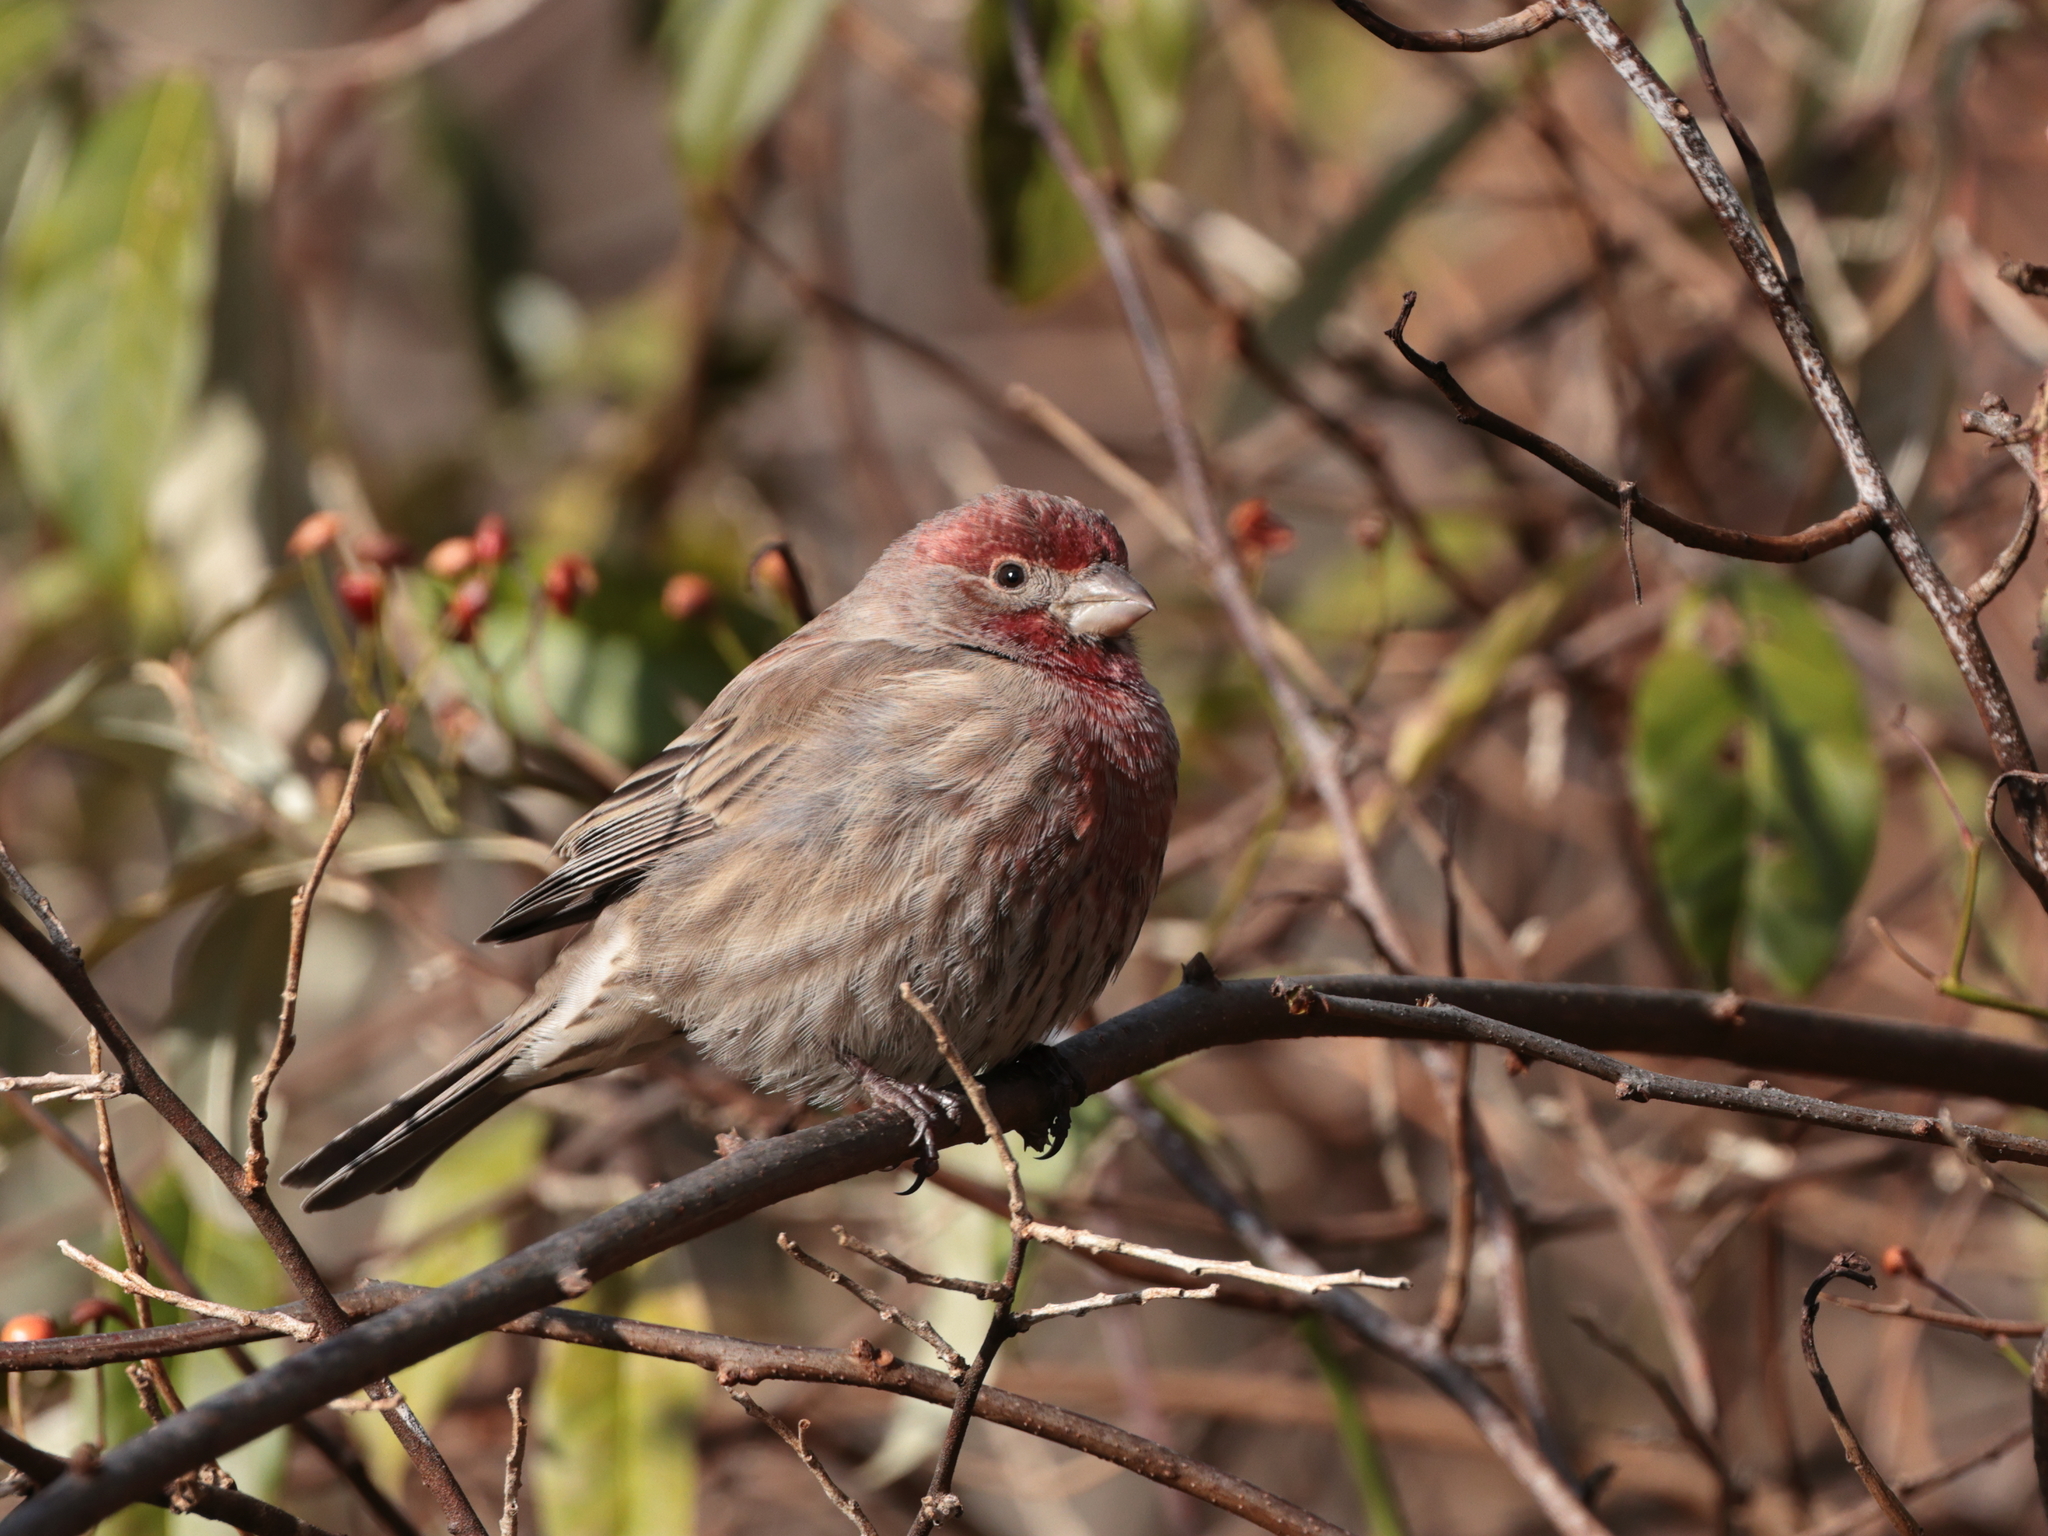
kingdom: Animalia
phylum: Chordata
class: Aves
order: Passeriformes
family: Fringillidae
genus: Haemorhous
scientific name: Haemorhous mexicanus
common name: House finch
